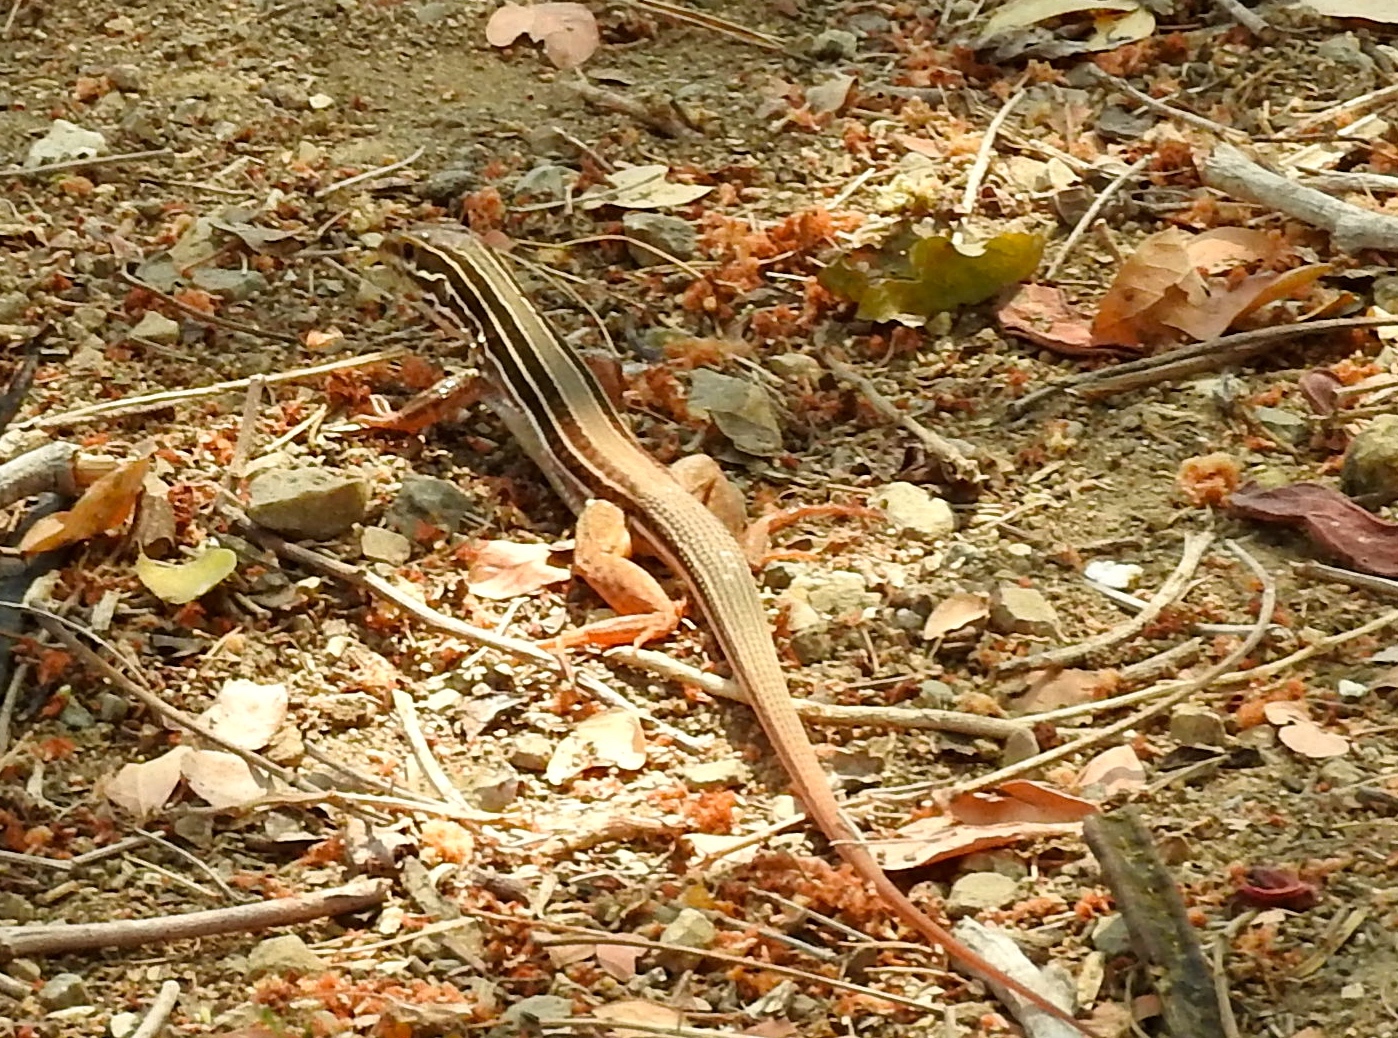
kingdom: Animalia
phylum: Chordata
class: Squamata
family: Teiidae
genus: Aspidoscelis
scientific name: Aspidoscelis costatus
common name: Western mexico whiptail
